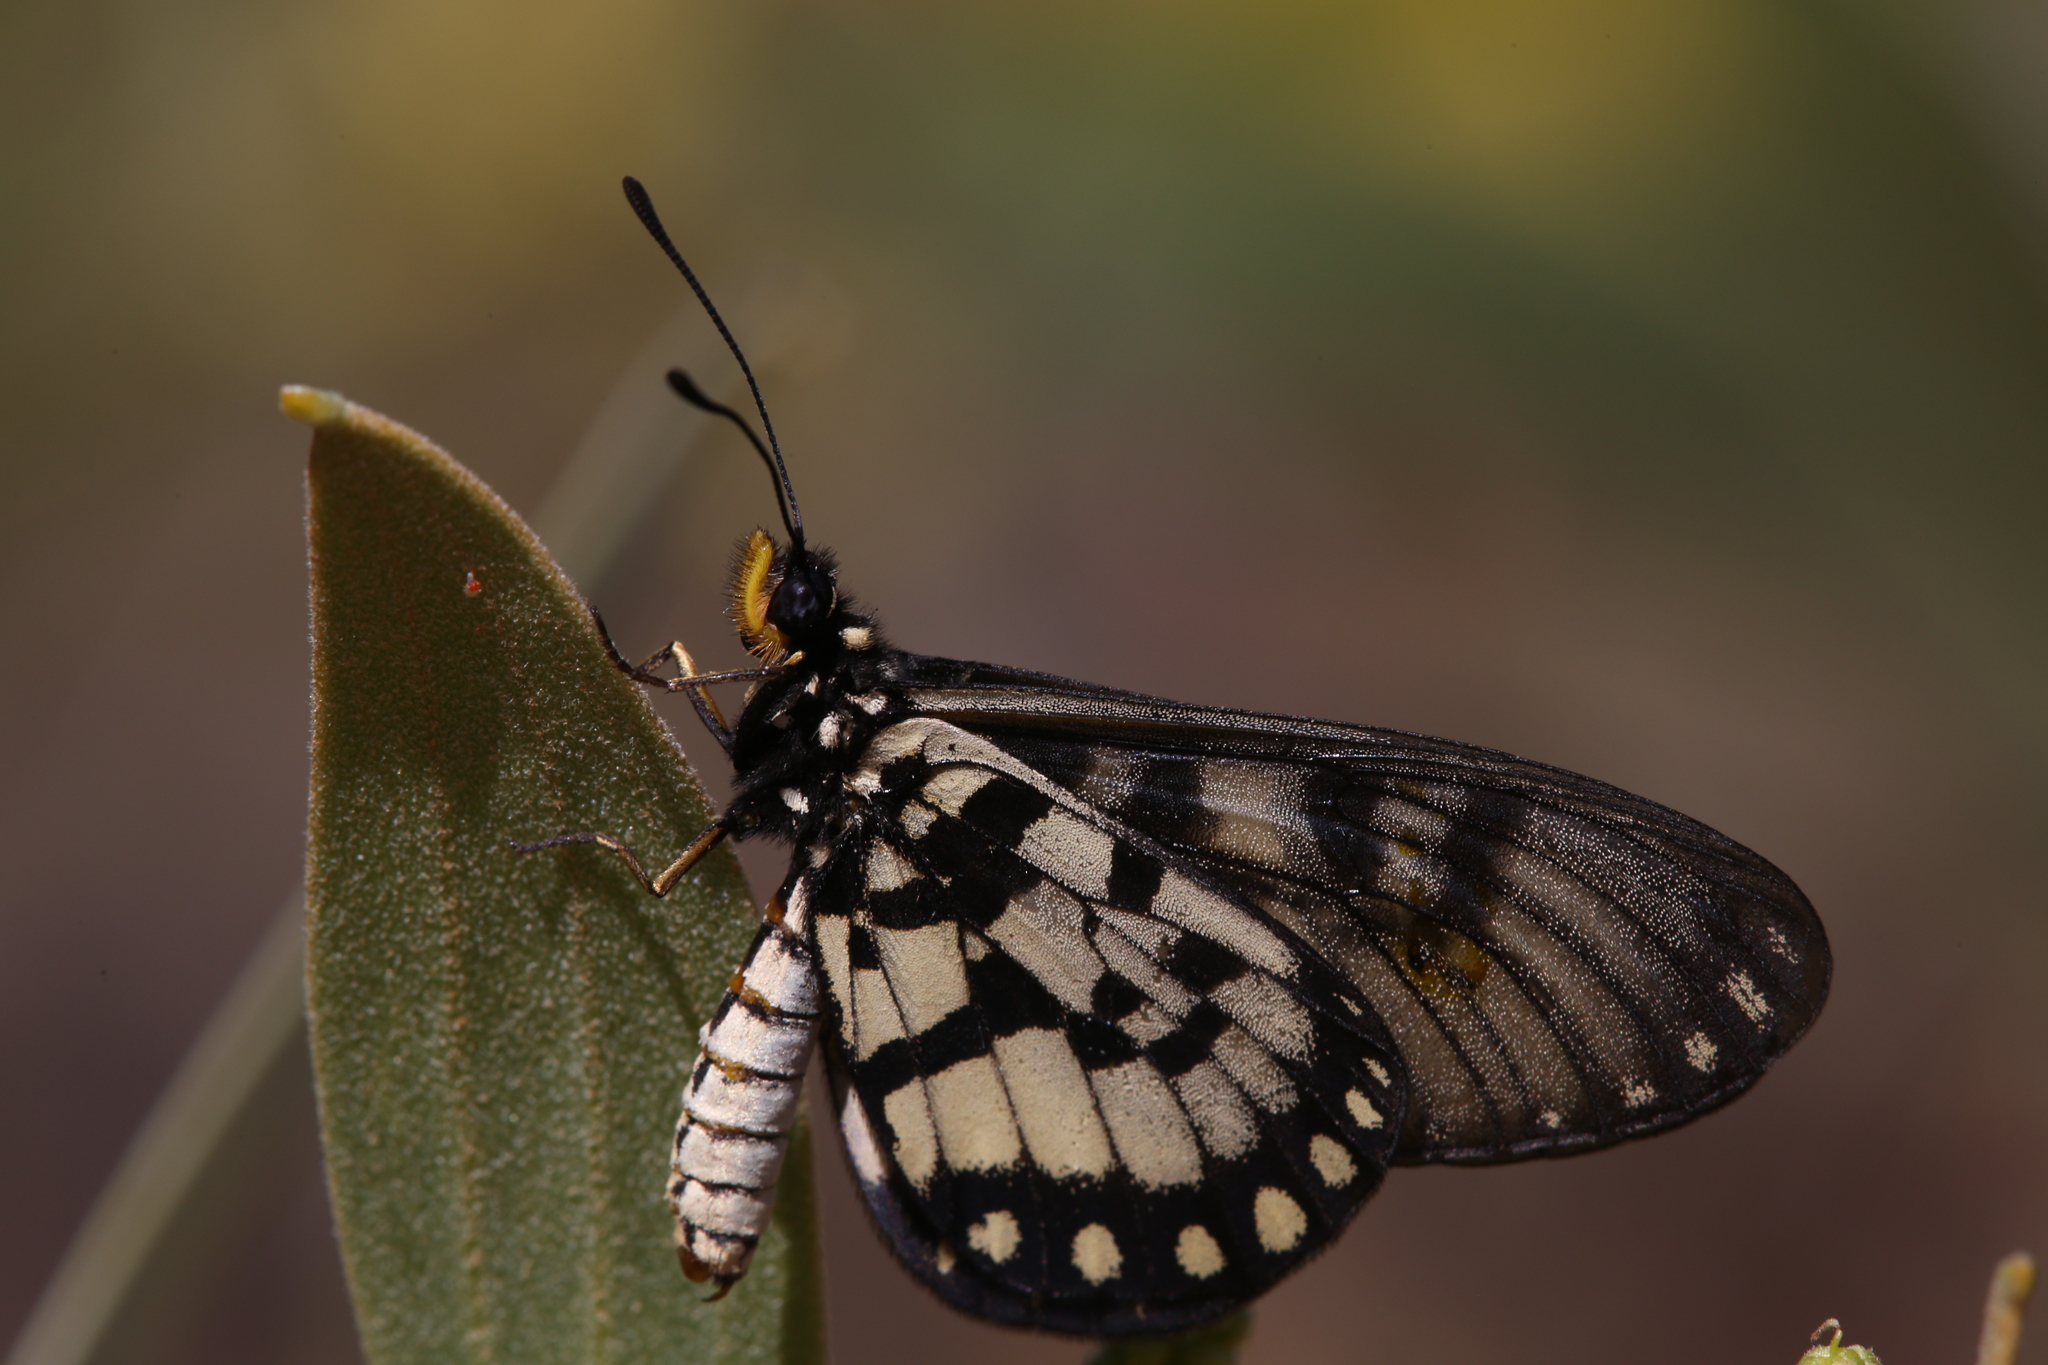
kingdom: Animalia
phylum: Arthropoda
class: Insecta
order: Lepidoptera
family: Nymphalidae
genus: Acraea
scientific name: Acraea andromacha
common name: Glasswing
